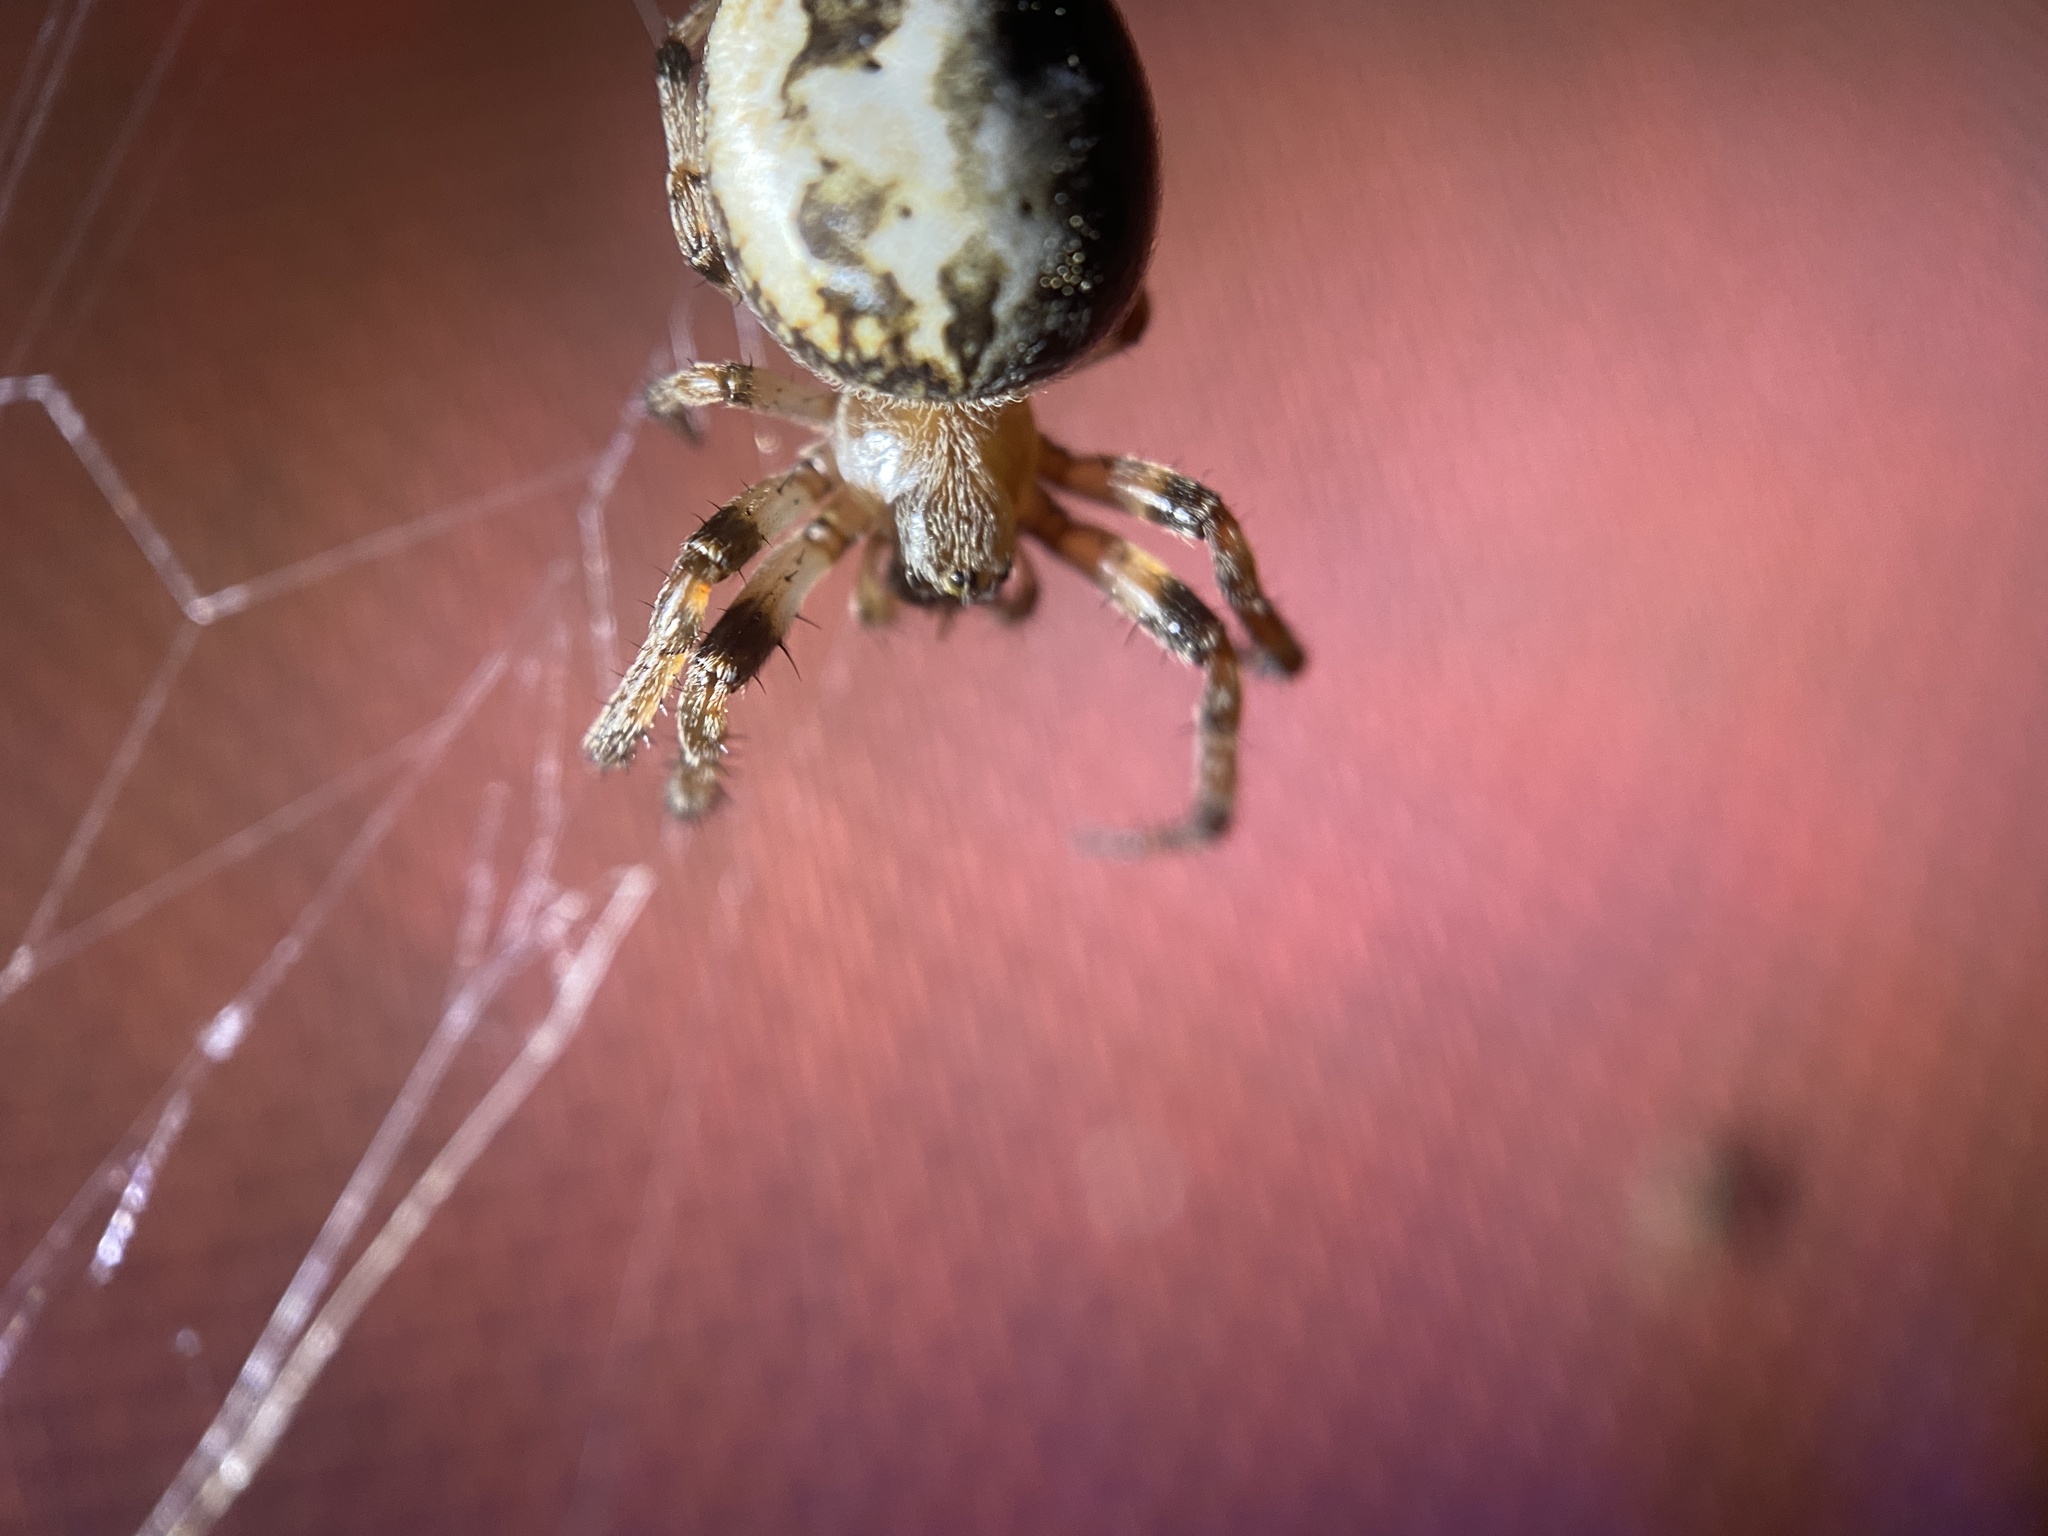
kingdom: Animalia
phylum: Arthropoda
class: Arachnida
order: Araneae
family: Araneidae
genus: Larinioides
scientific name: Larinioides cornutus
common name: Furrow orbweaver
